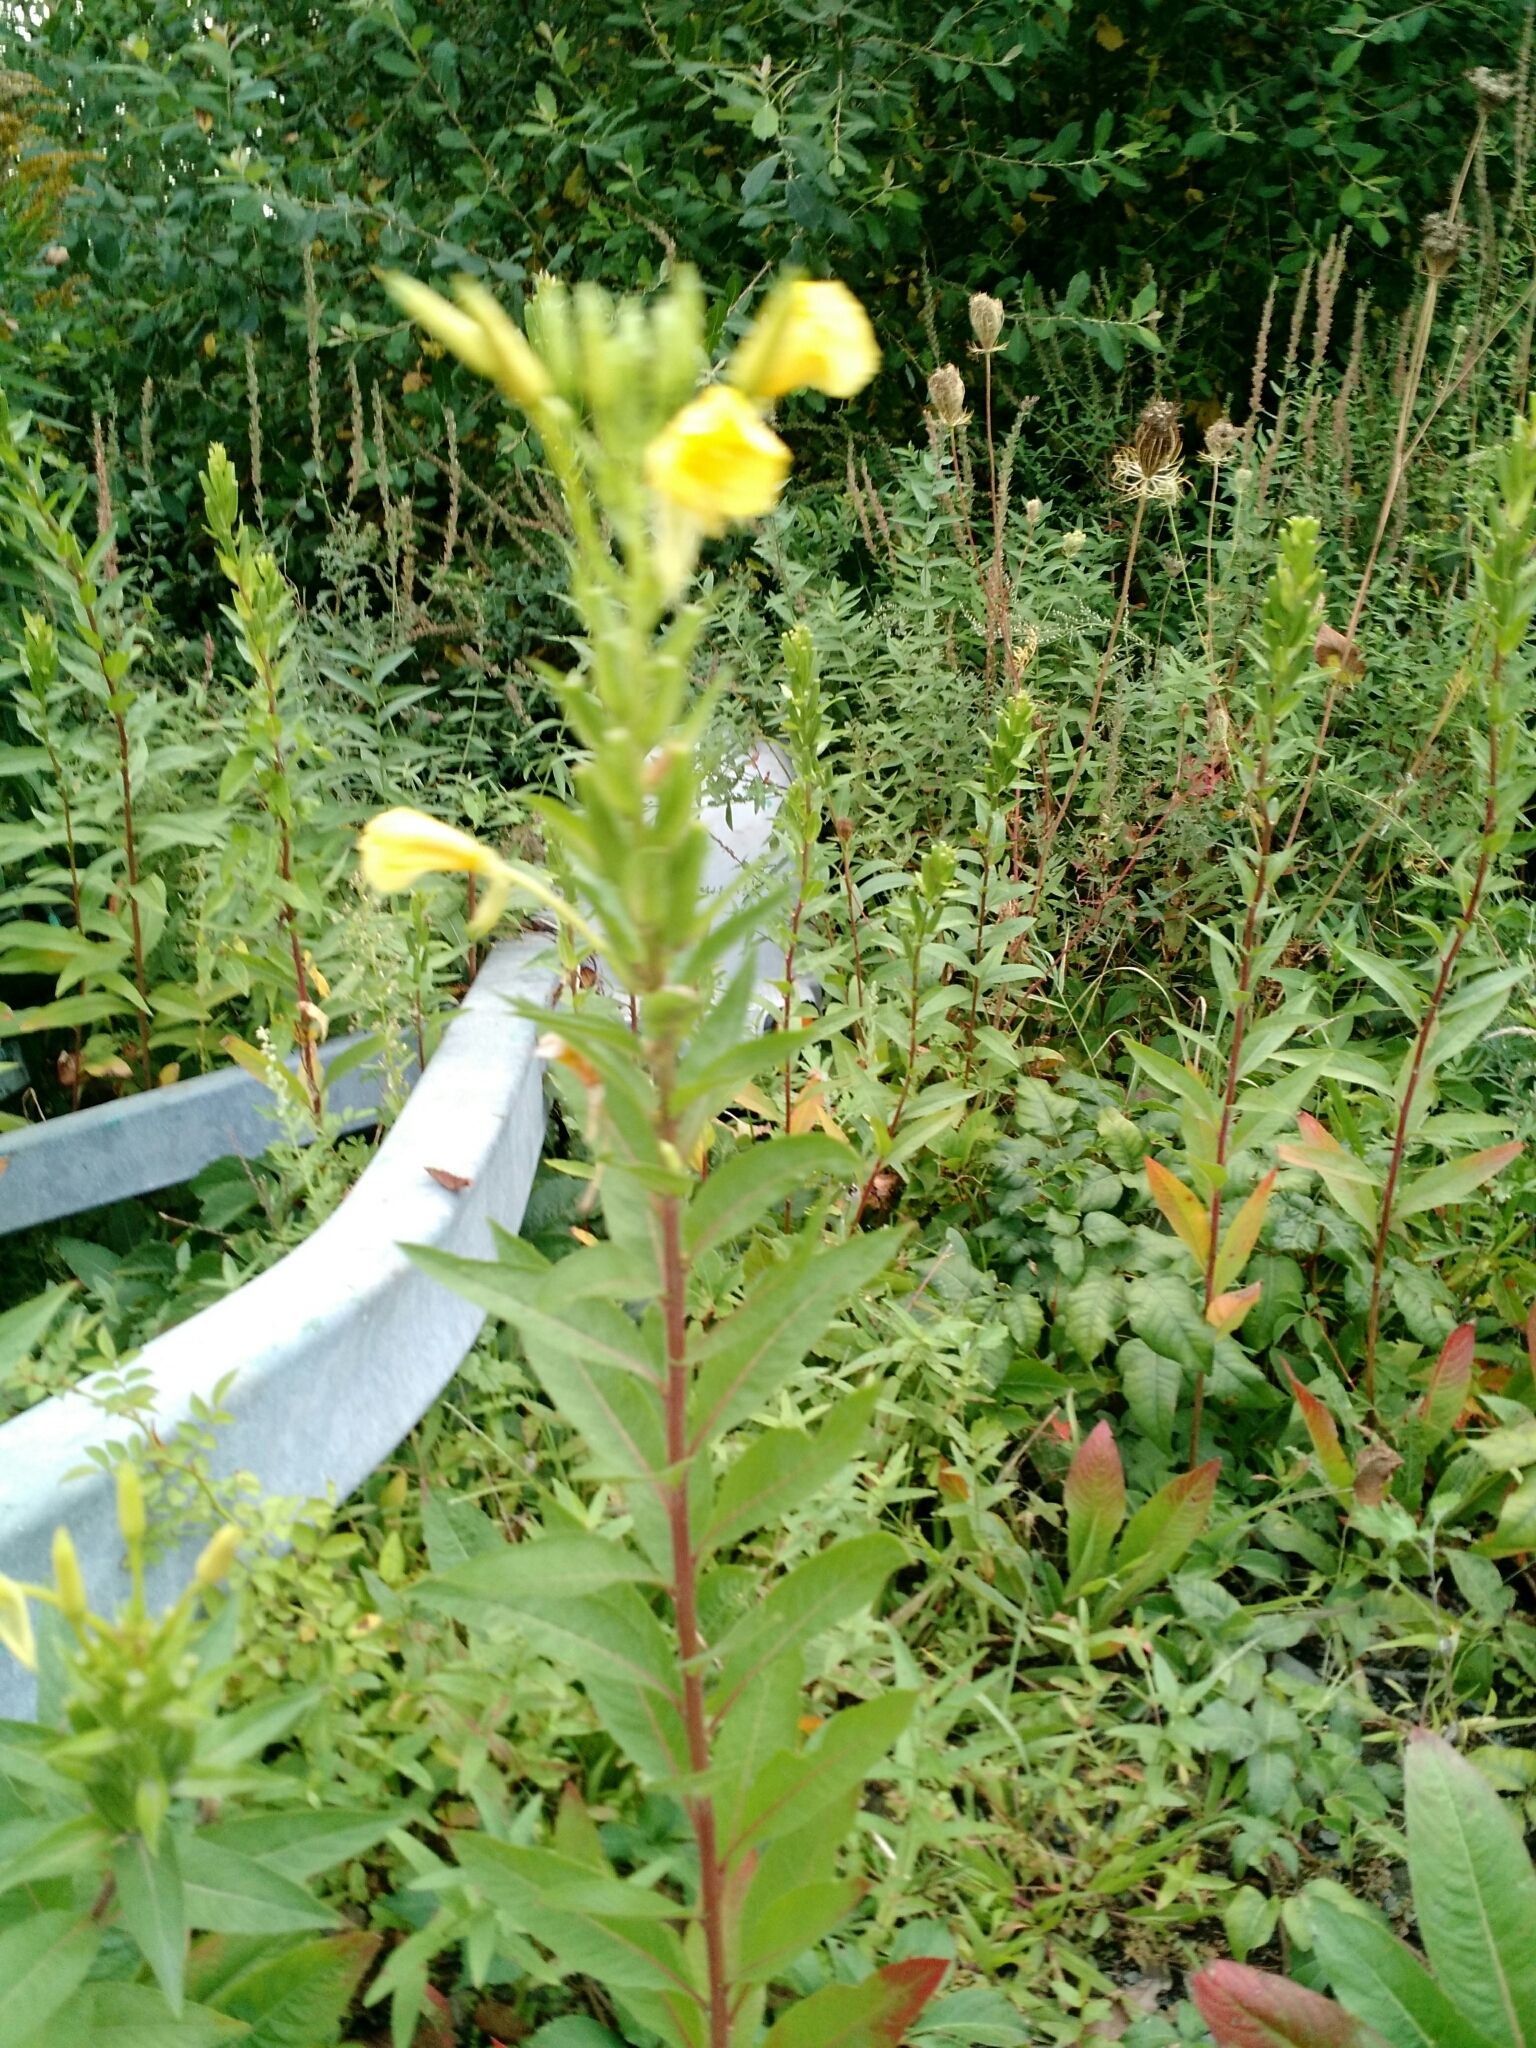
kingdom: Plantae
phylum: Tracheophyta
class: Magnoliopsida
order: Myrtales
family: Onagraceae
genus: Oenothera
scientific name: Oenothera biennis
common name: Common evening-primrose
